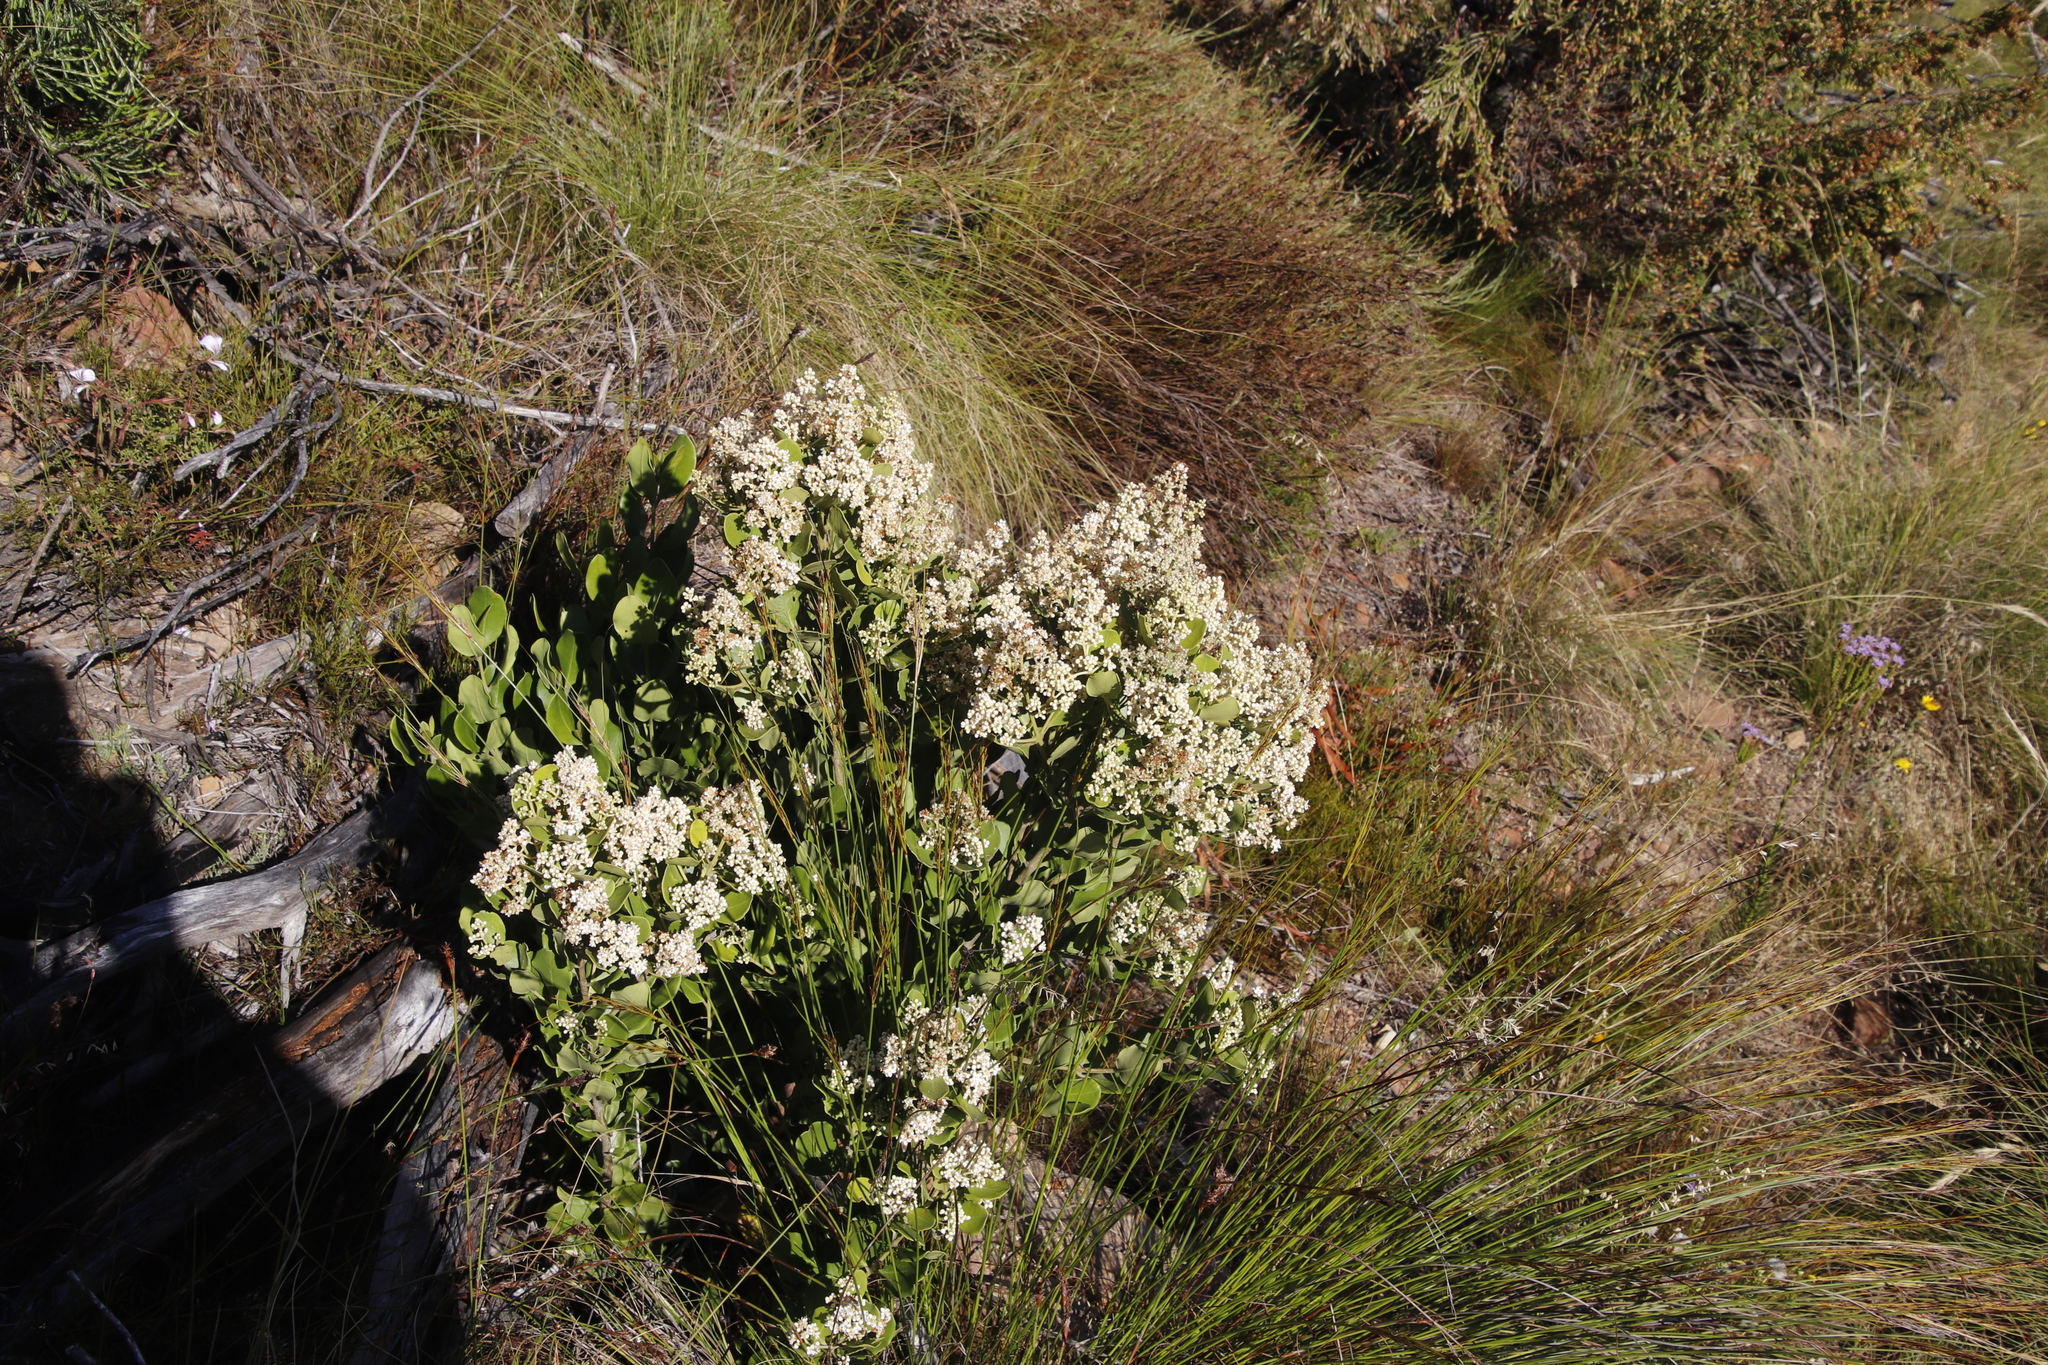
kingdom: Plantae
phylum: Tracheophyta
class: Magnoliopsida
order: Lamiales
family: Oleaceae
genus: Olea
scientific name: Olea capensis
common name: Black ironwood
